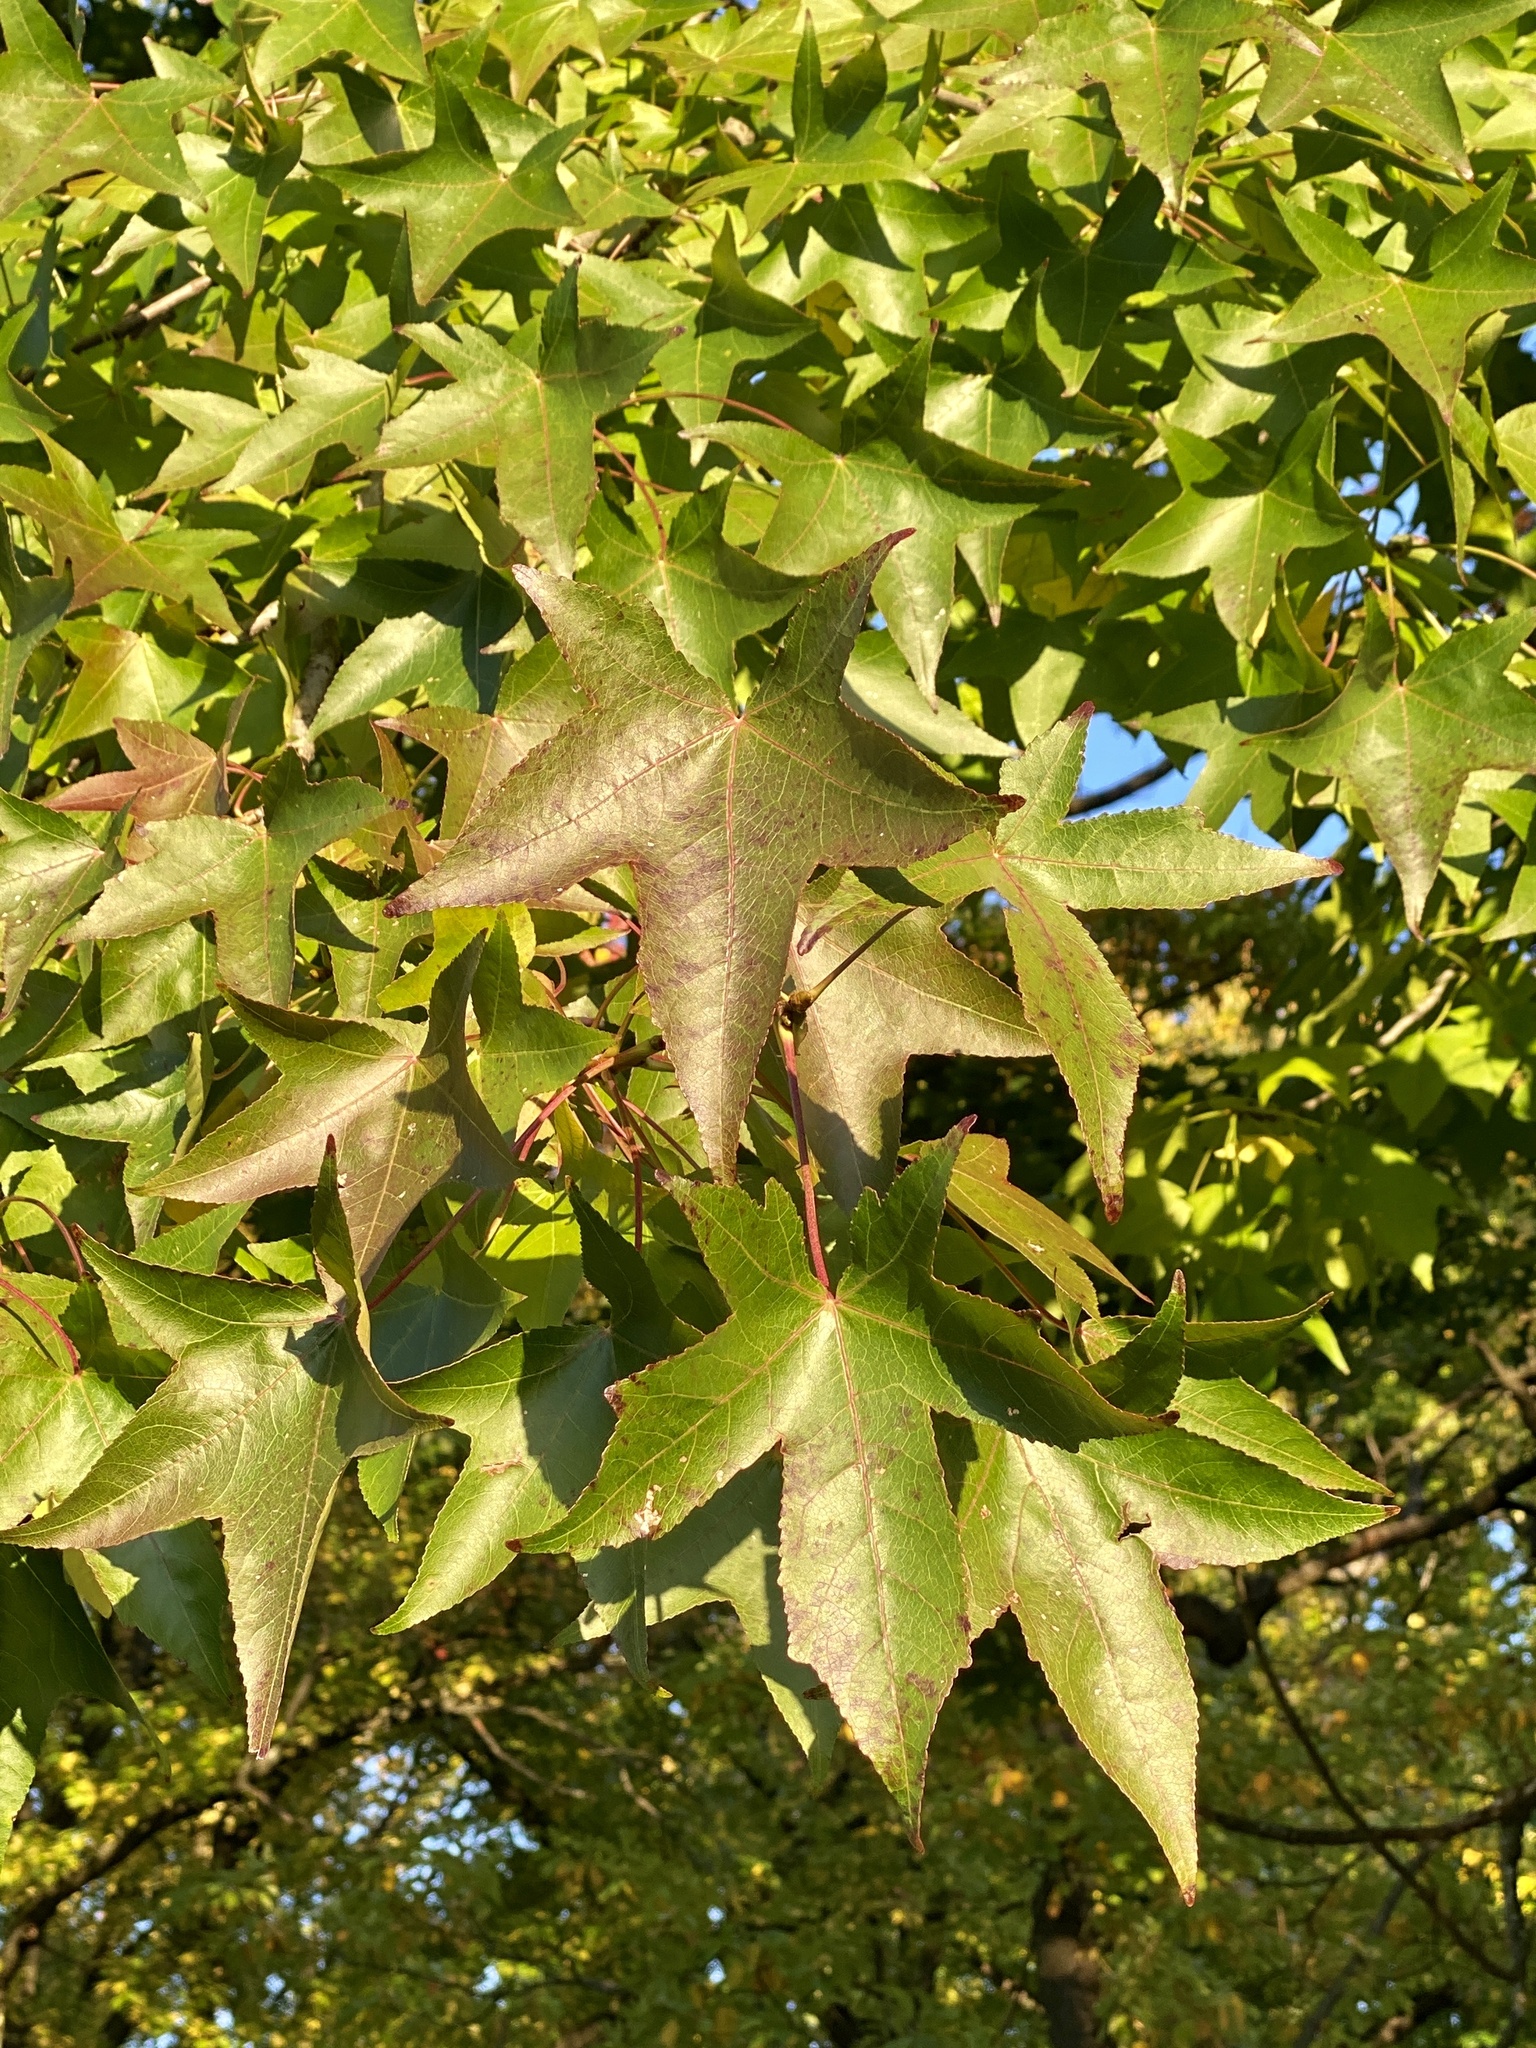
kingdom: Plantae
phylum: Tracheophyta
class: Magnoliopsida
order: Saxifragales
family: Altingiaceae
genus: Liquidambar
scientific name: Liquidambar styraciflua
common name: Sweet gum
